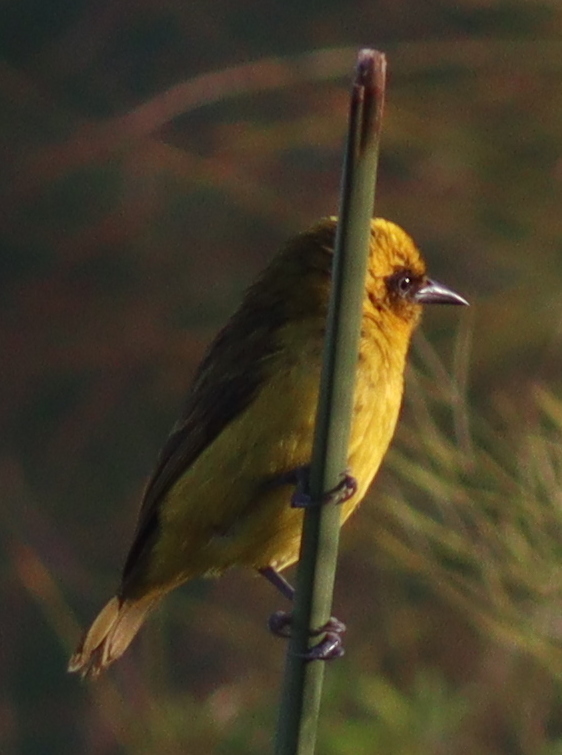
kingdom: Animalia
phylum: Chordata
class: Aves
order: Passeriformes
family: Ploceidae
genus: Ploceus
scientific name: Ploceus pelzelni
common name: Slender-billed weaver
